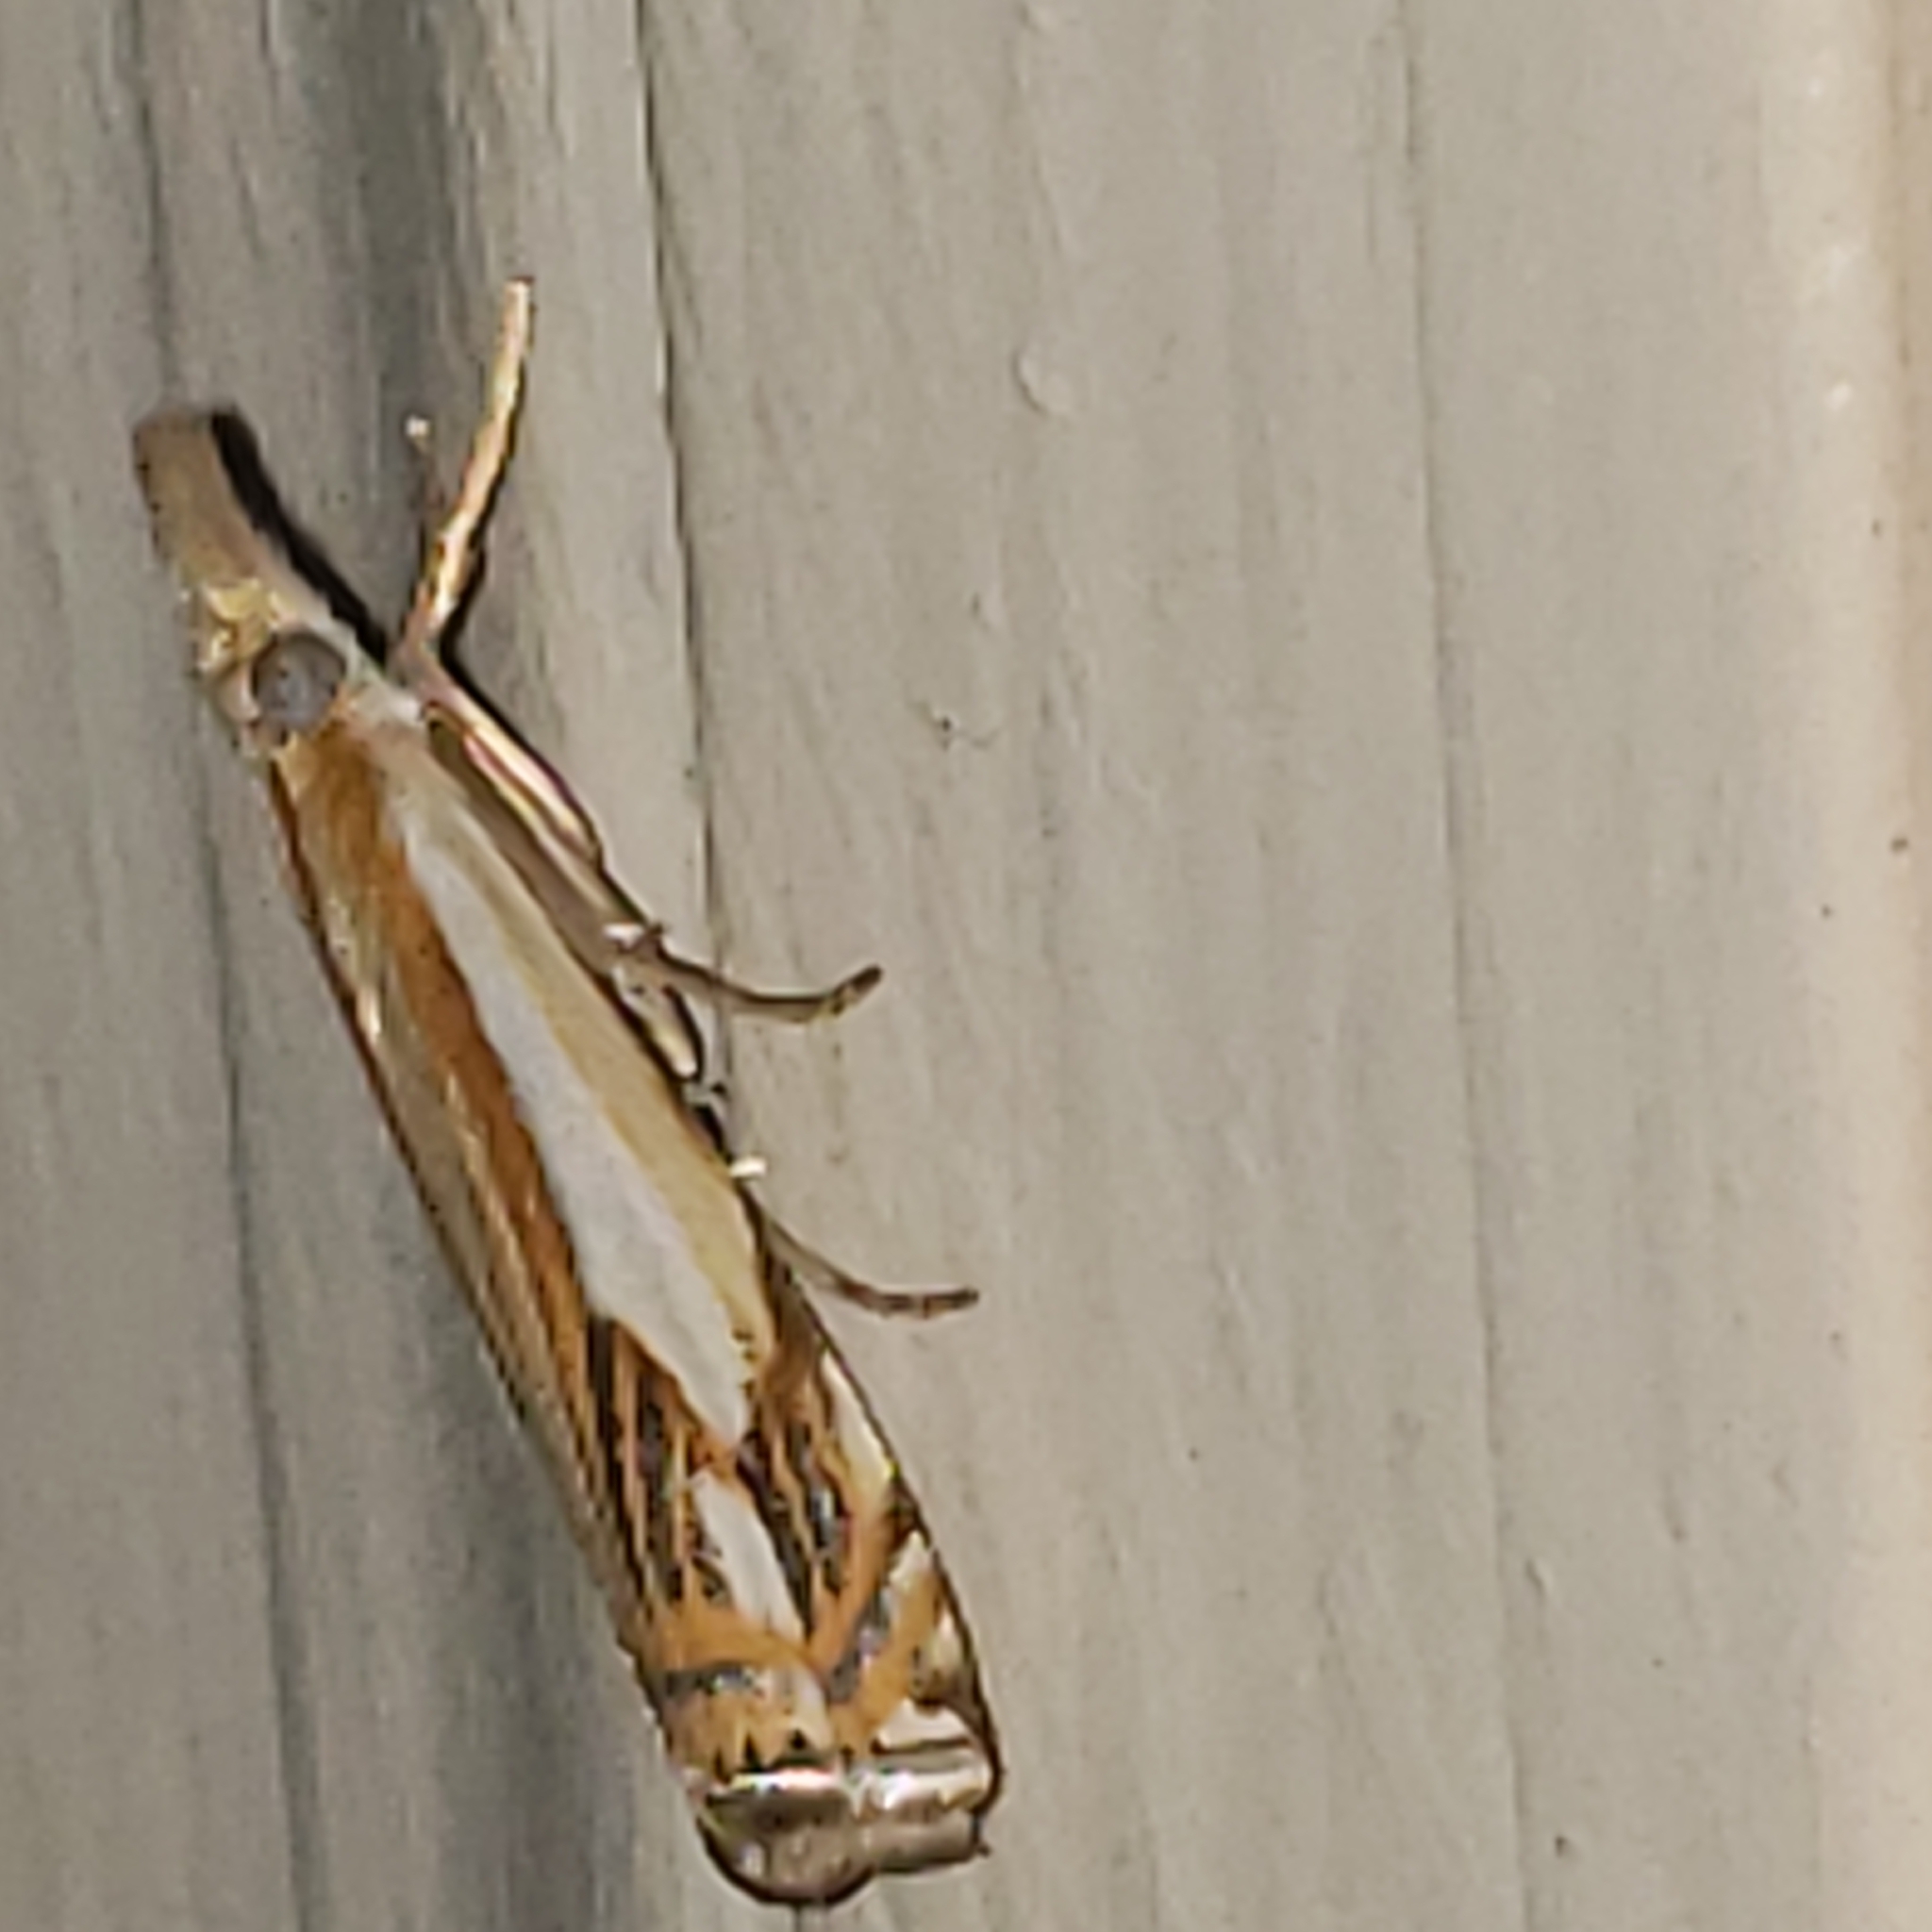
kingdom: Animalia
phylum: Arthropoda
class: Insecta
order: Lepidoptera
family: Crambidae
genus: Crambus
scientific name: Crambus agitatellus
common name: Double-banded grass-veneer
